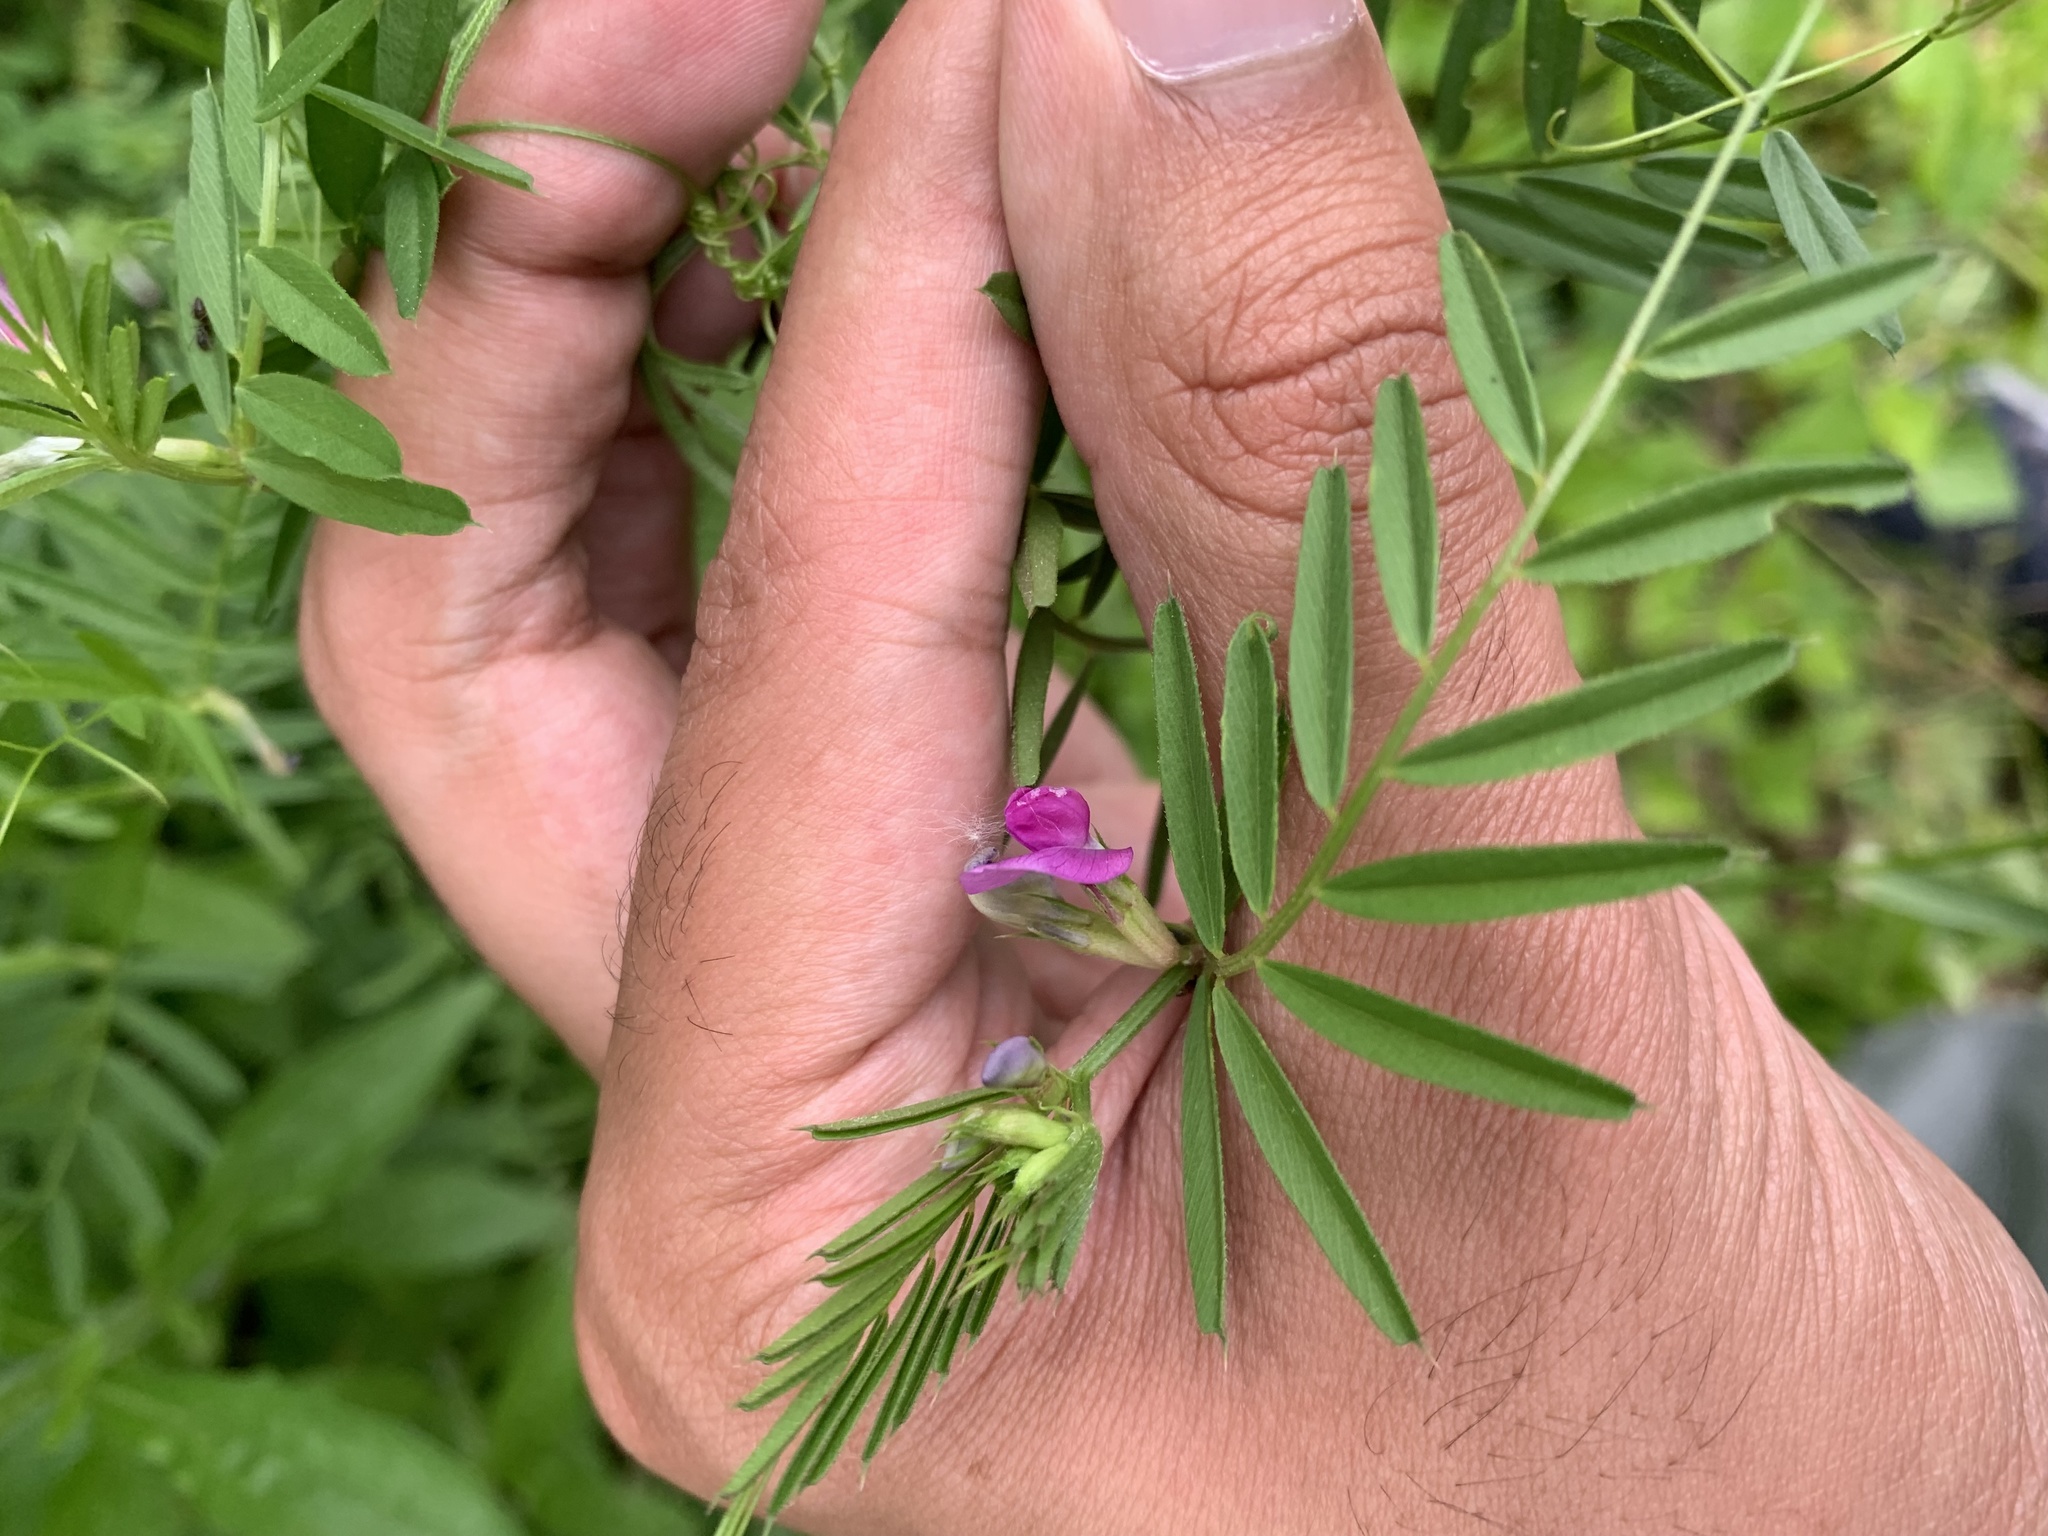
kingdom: Plantae
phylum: Tracheophyta
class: Magnoliopsida
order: Fabales
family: Fabaceae
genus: Vicia
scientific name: Vicia sativa
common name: Garden vetch
